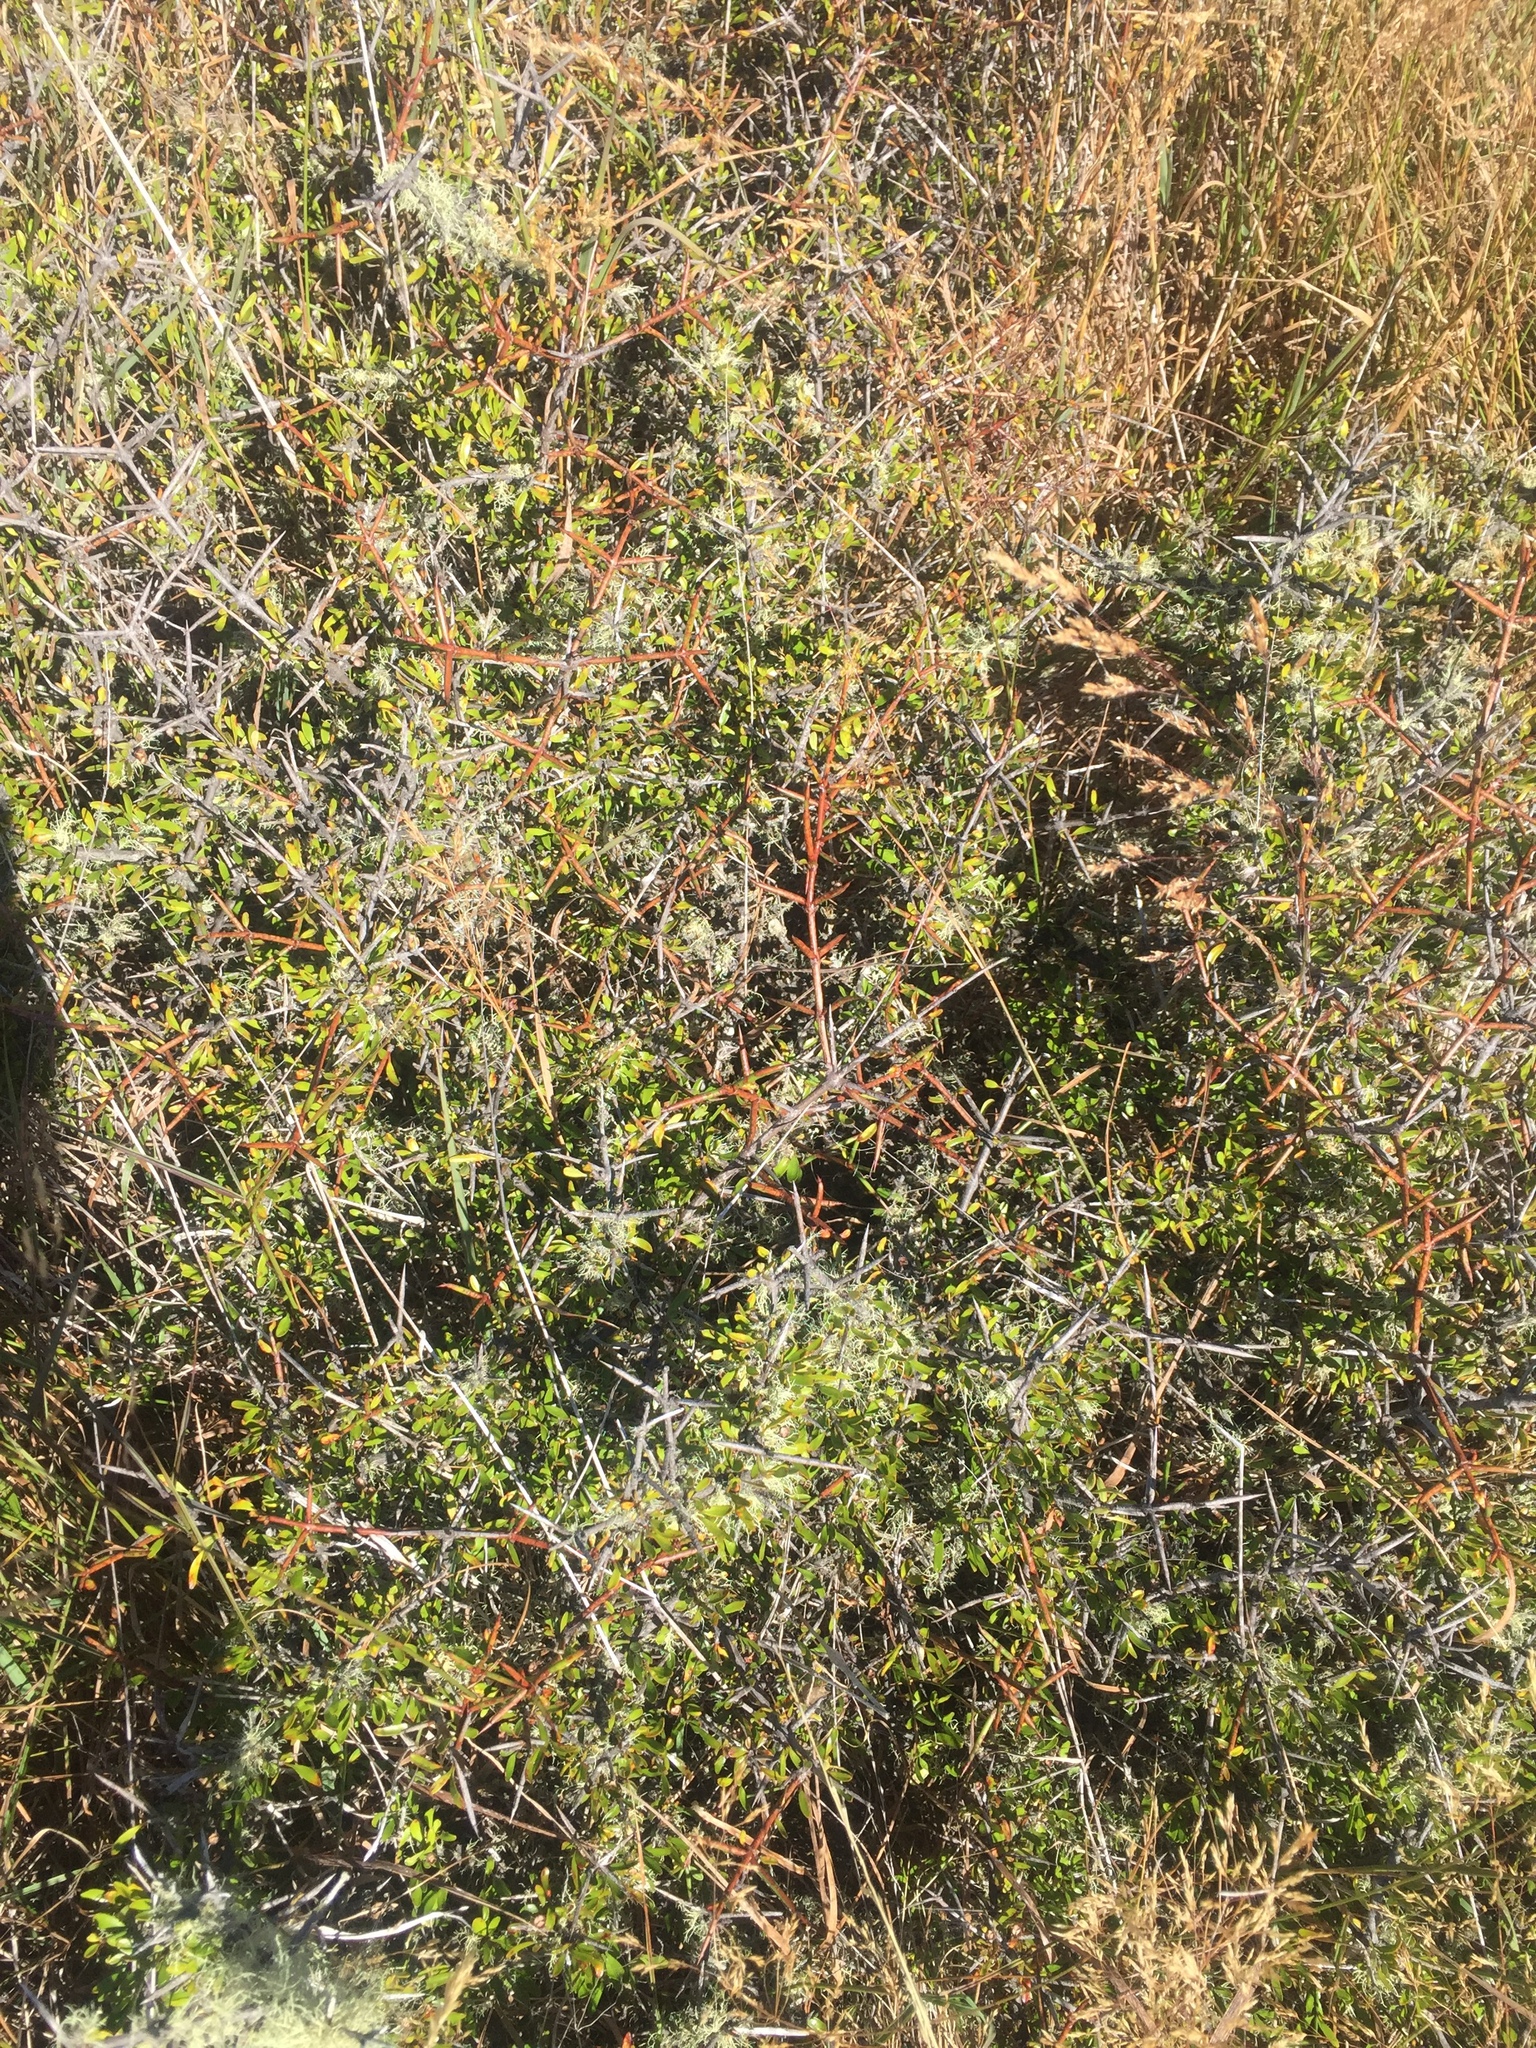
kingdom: Plantae
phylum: Tracheophyta
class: Magnoliopsida
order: Rosales
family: Rhamnaceae
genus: Discaria
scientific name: Discaria toumatou
